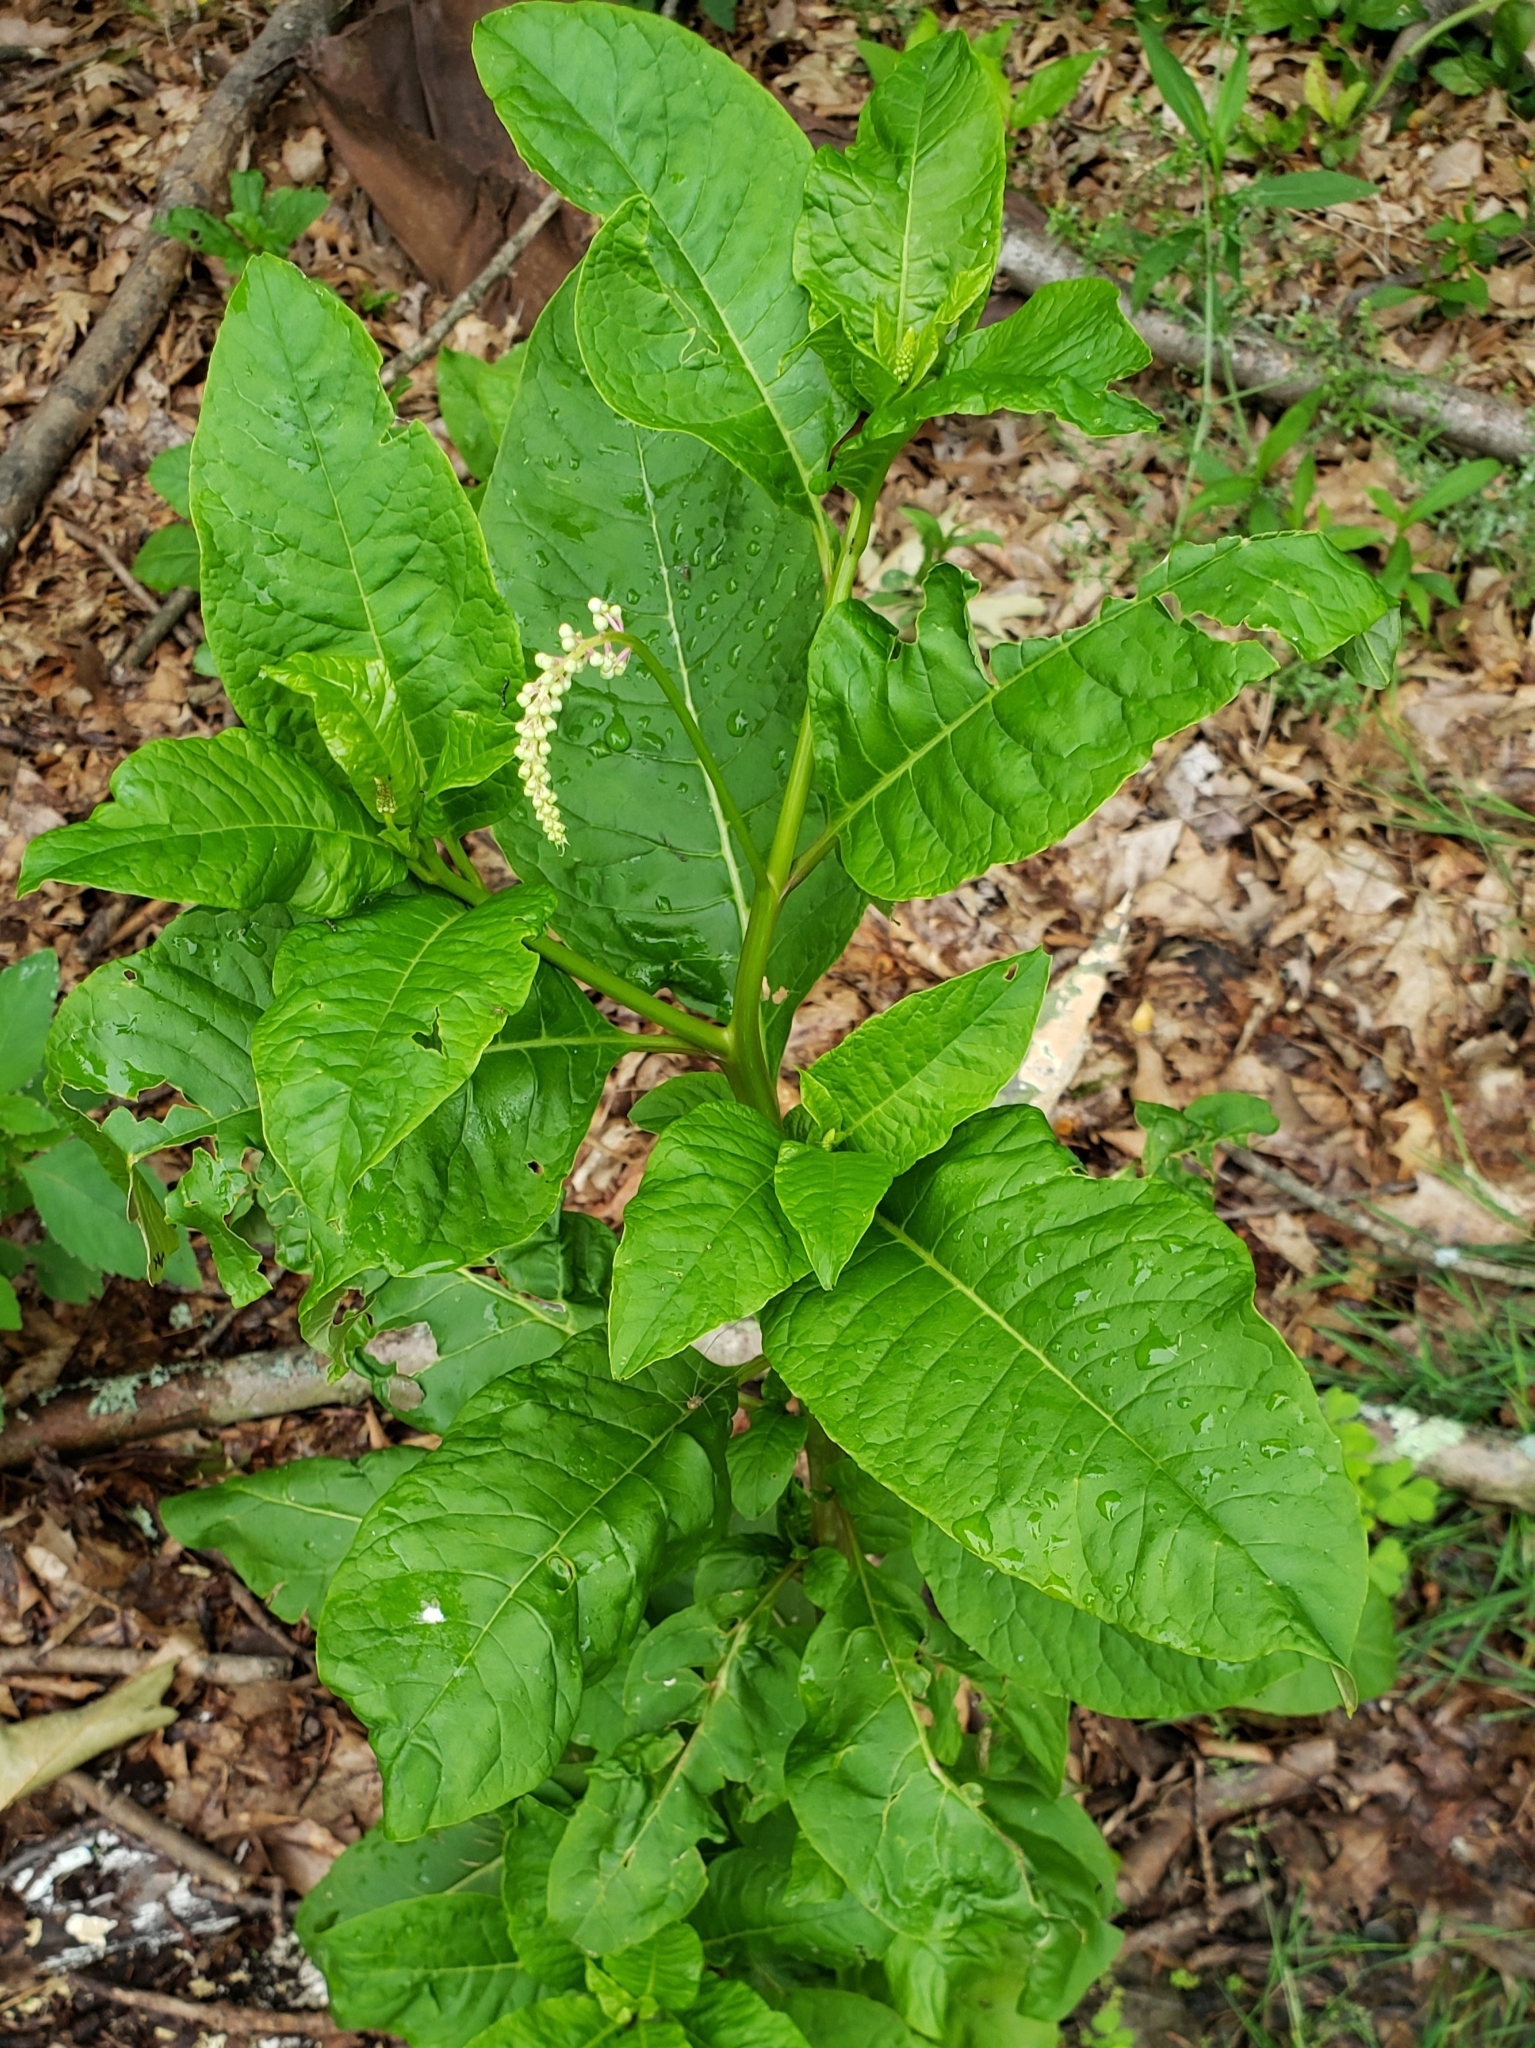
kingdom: Plantae
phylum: Tracheophyta
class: Magnoliopsida
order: Caryophyllales
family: Phytolaccaceae
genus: Phytolacca
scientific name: Phytolacca americana
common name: American pokeweed
